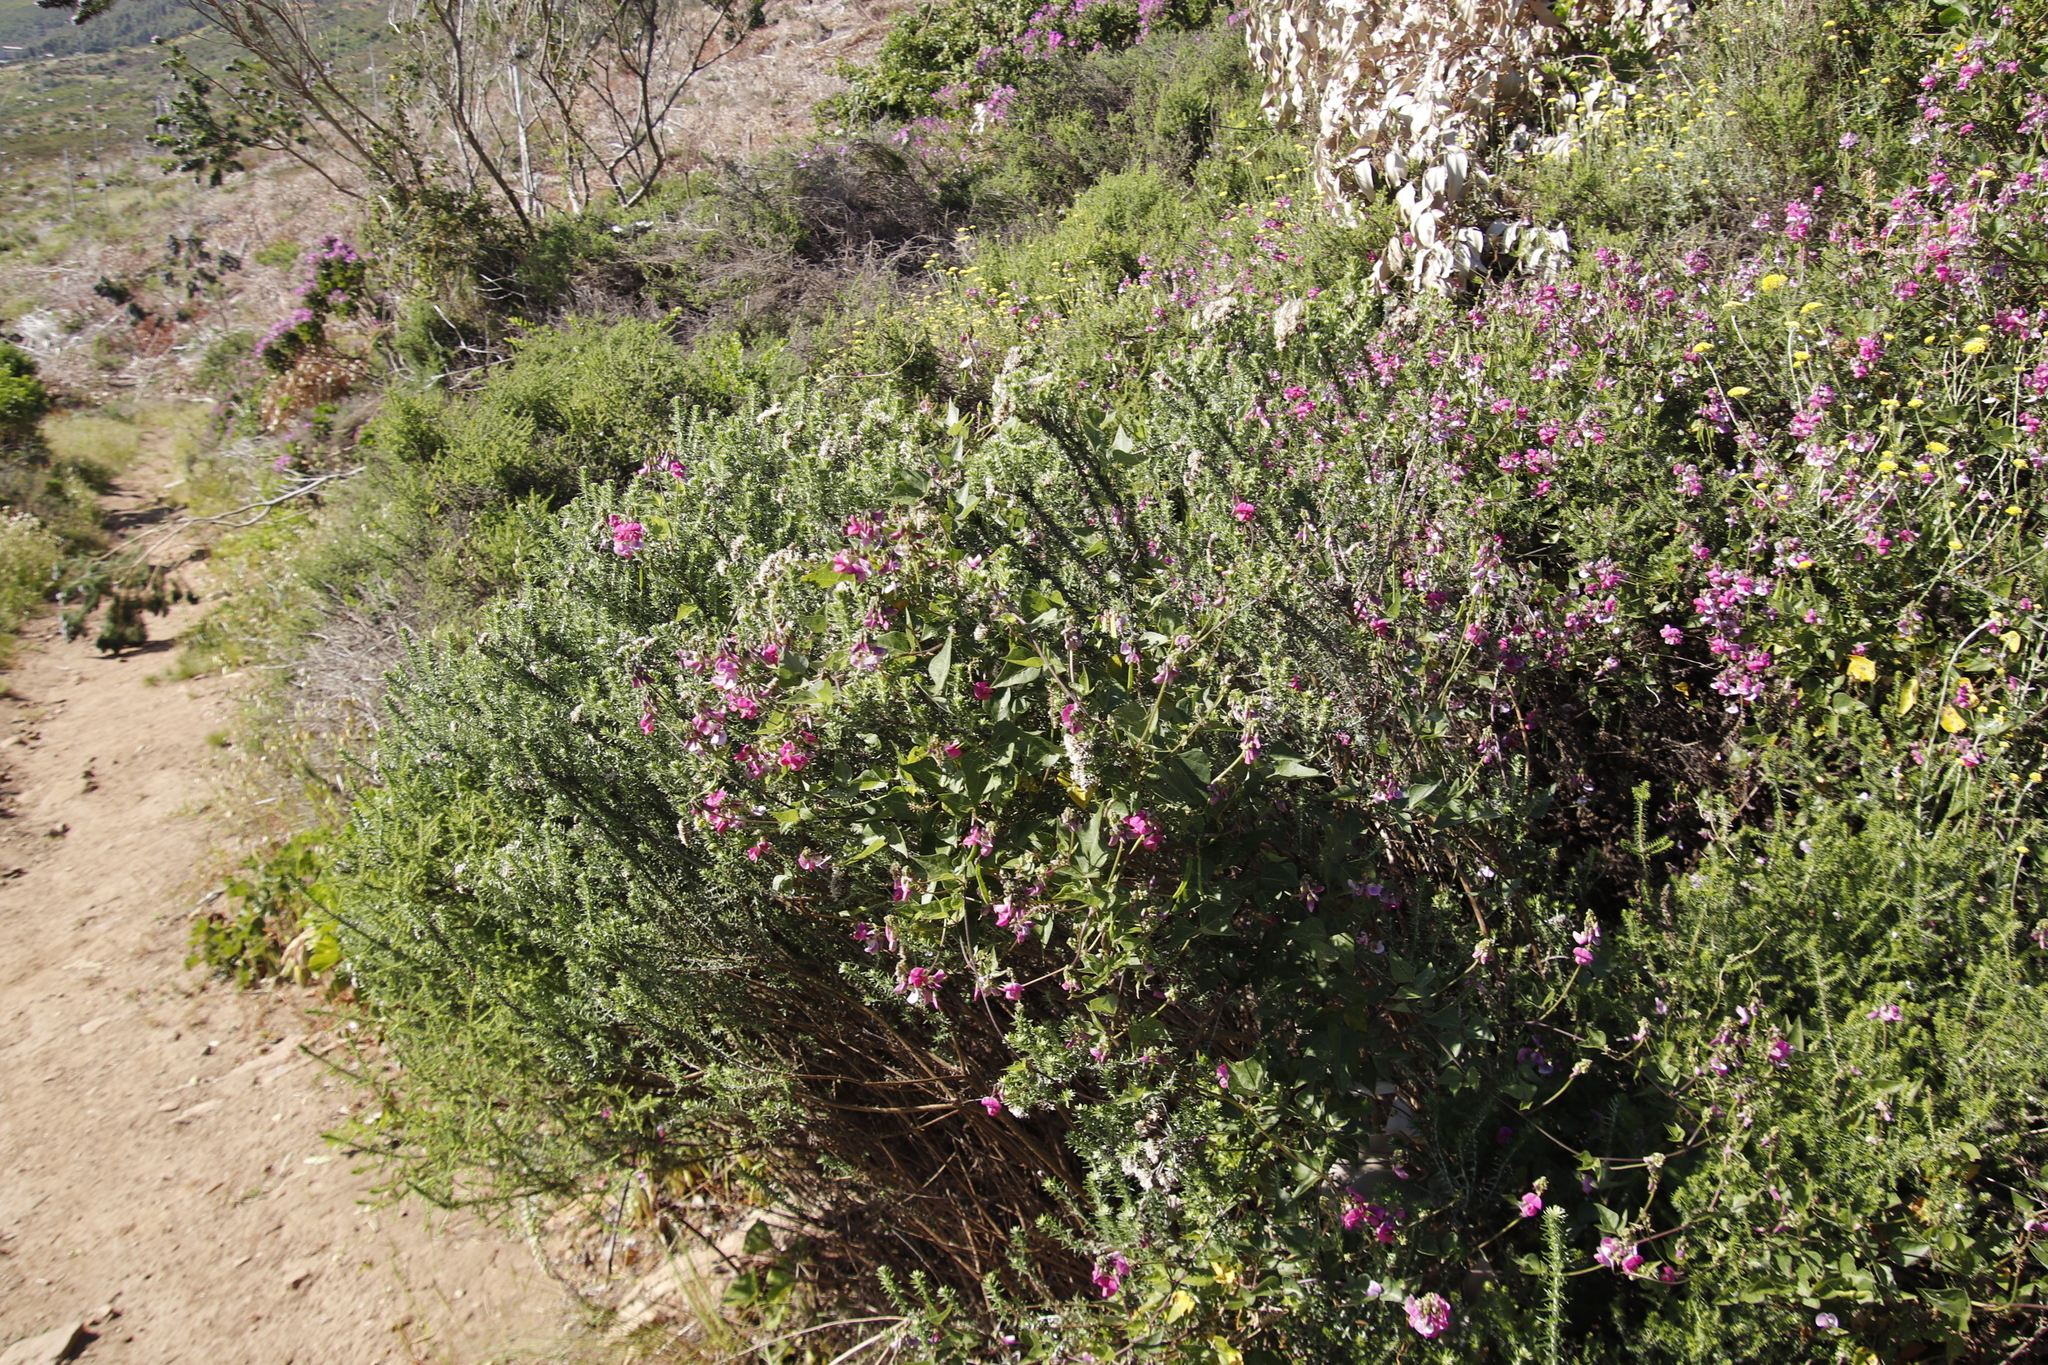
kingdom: Plantae
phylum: Tracheophyta
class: Magnoliopsida
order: Fabales
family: Fabaceae
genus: Dipogon
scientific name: Dipogon lignosus
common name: Okie bean
